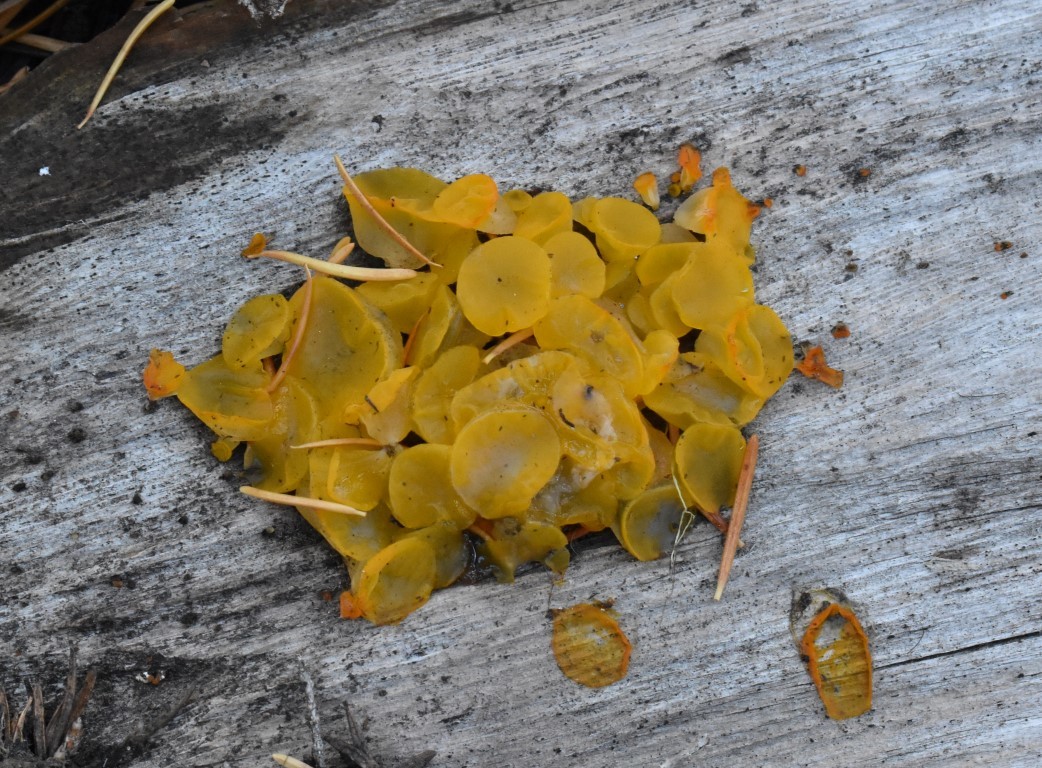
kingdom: Fungi
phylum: Basidiomycota
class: Dacrymycetes
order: Dacrymycetales
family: Dacrymycetaceae
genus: Guepiniopsis
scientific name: Guepiniopsis alpina
